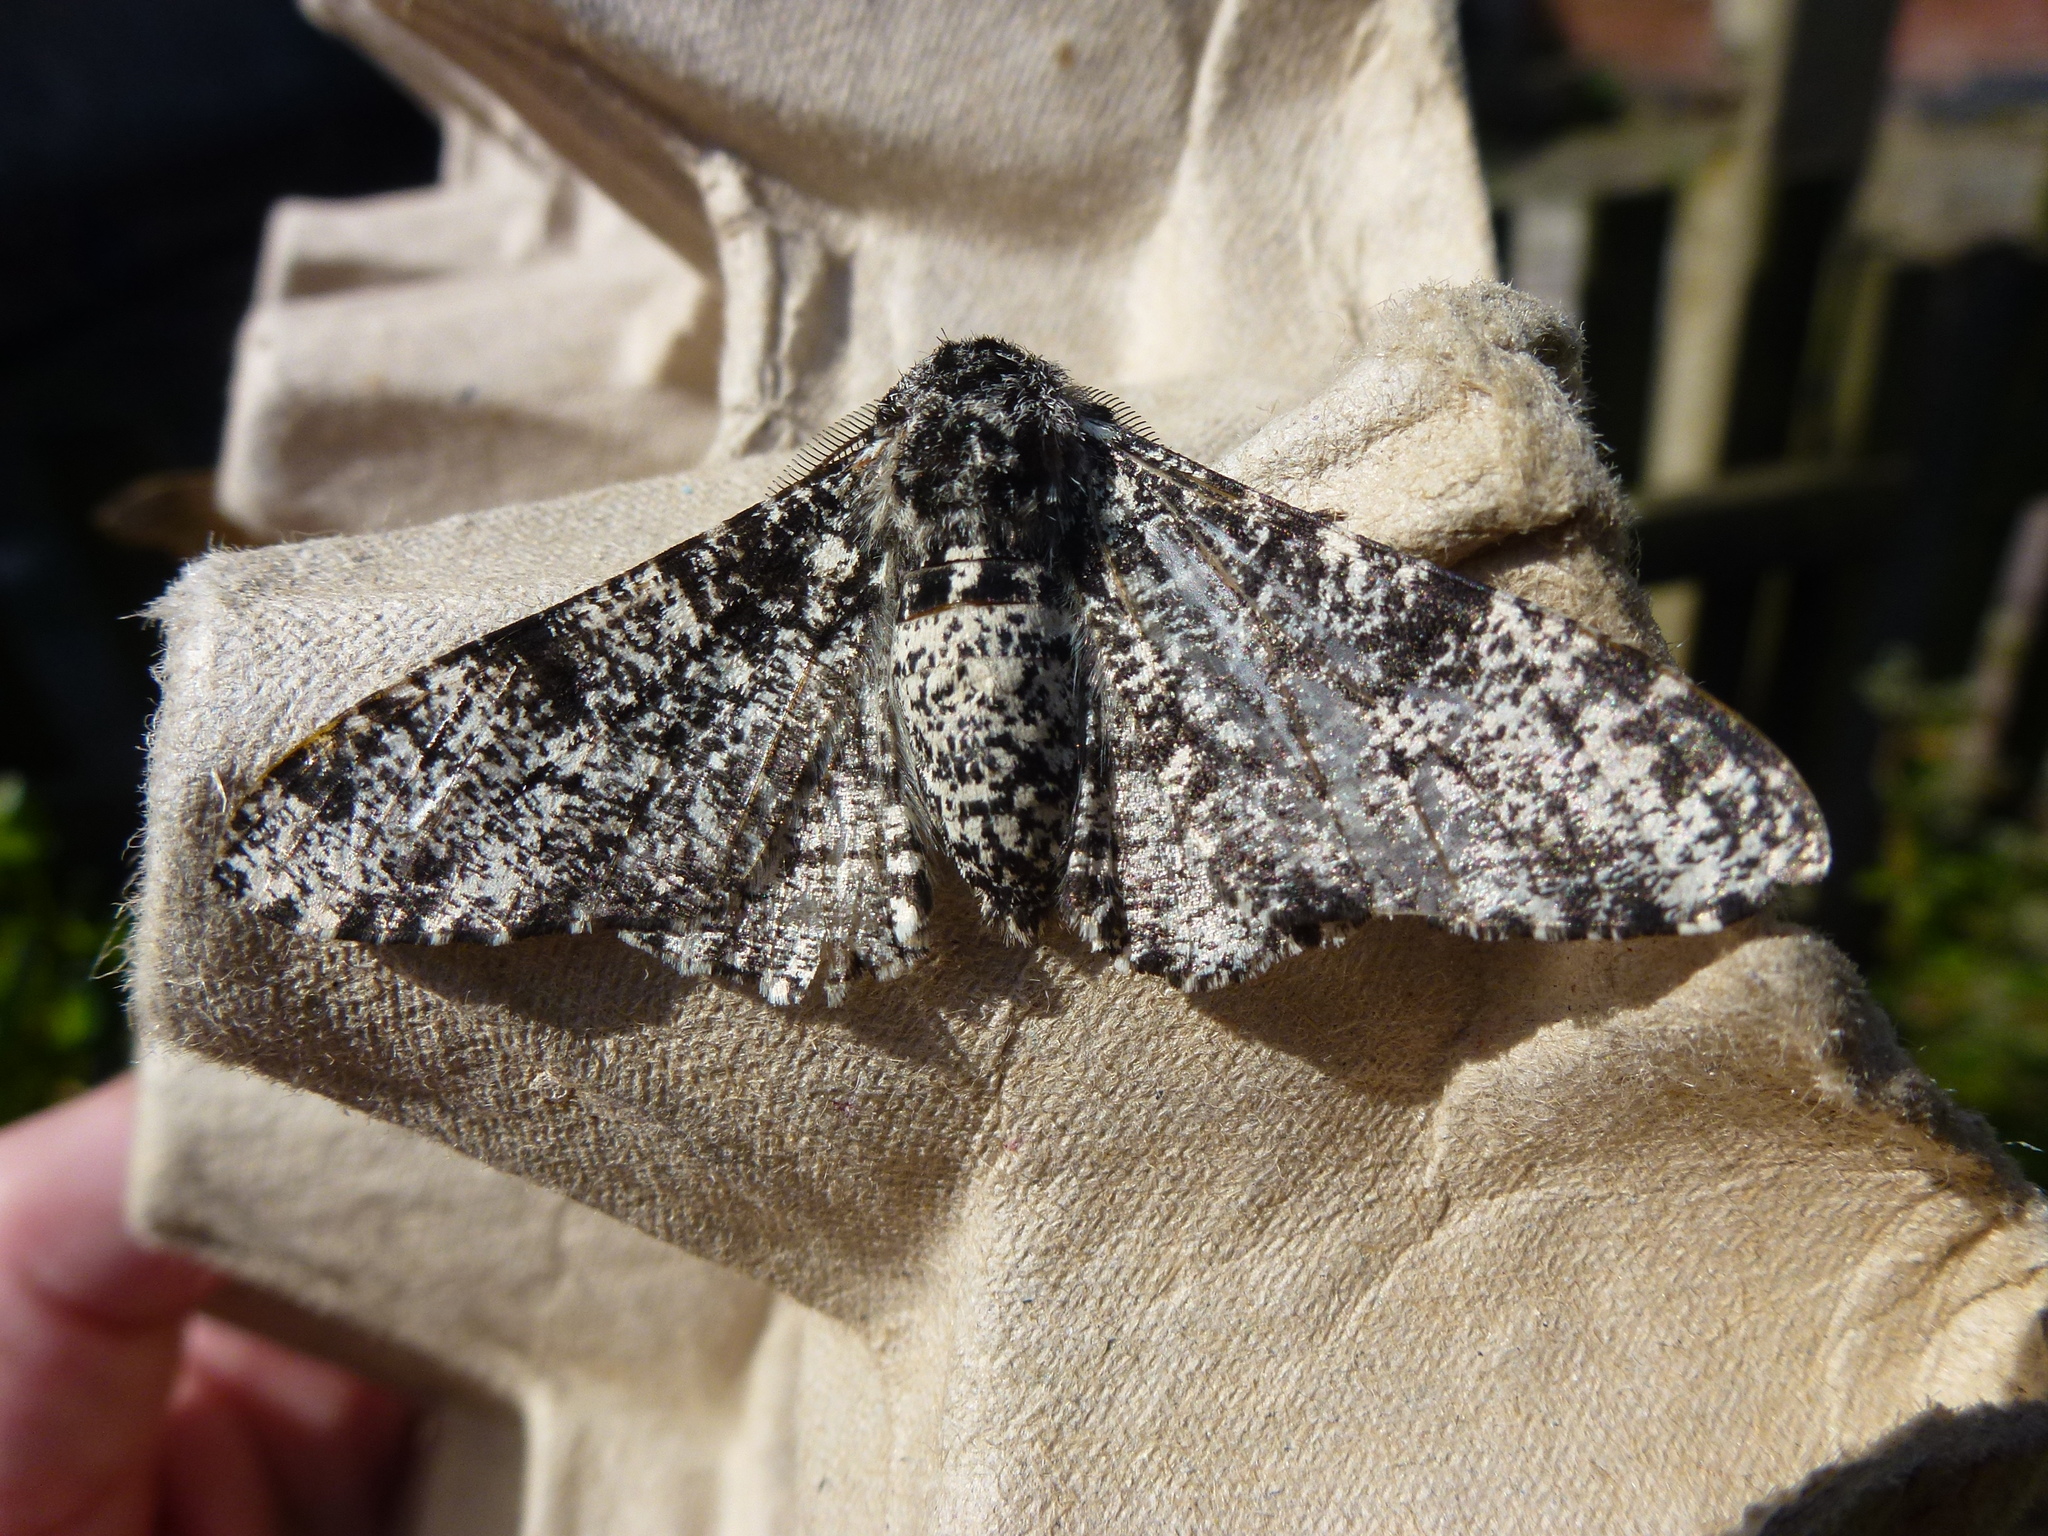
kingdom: Animalia
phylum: Arthropoda
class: Insecta
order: Lepidoptera
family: Geometridae
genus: Biston
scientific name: Biston betularia
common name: Peppered moth
